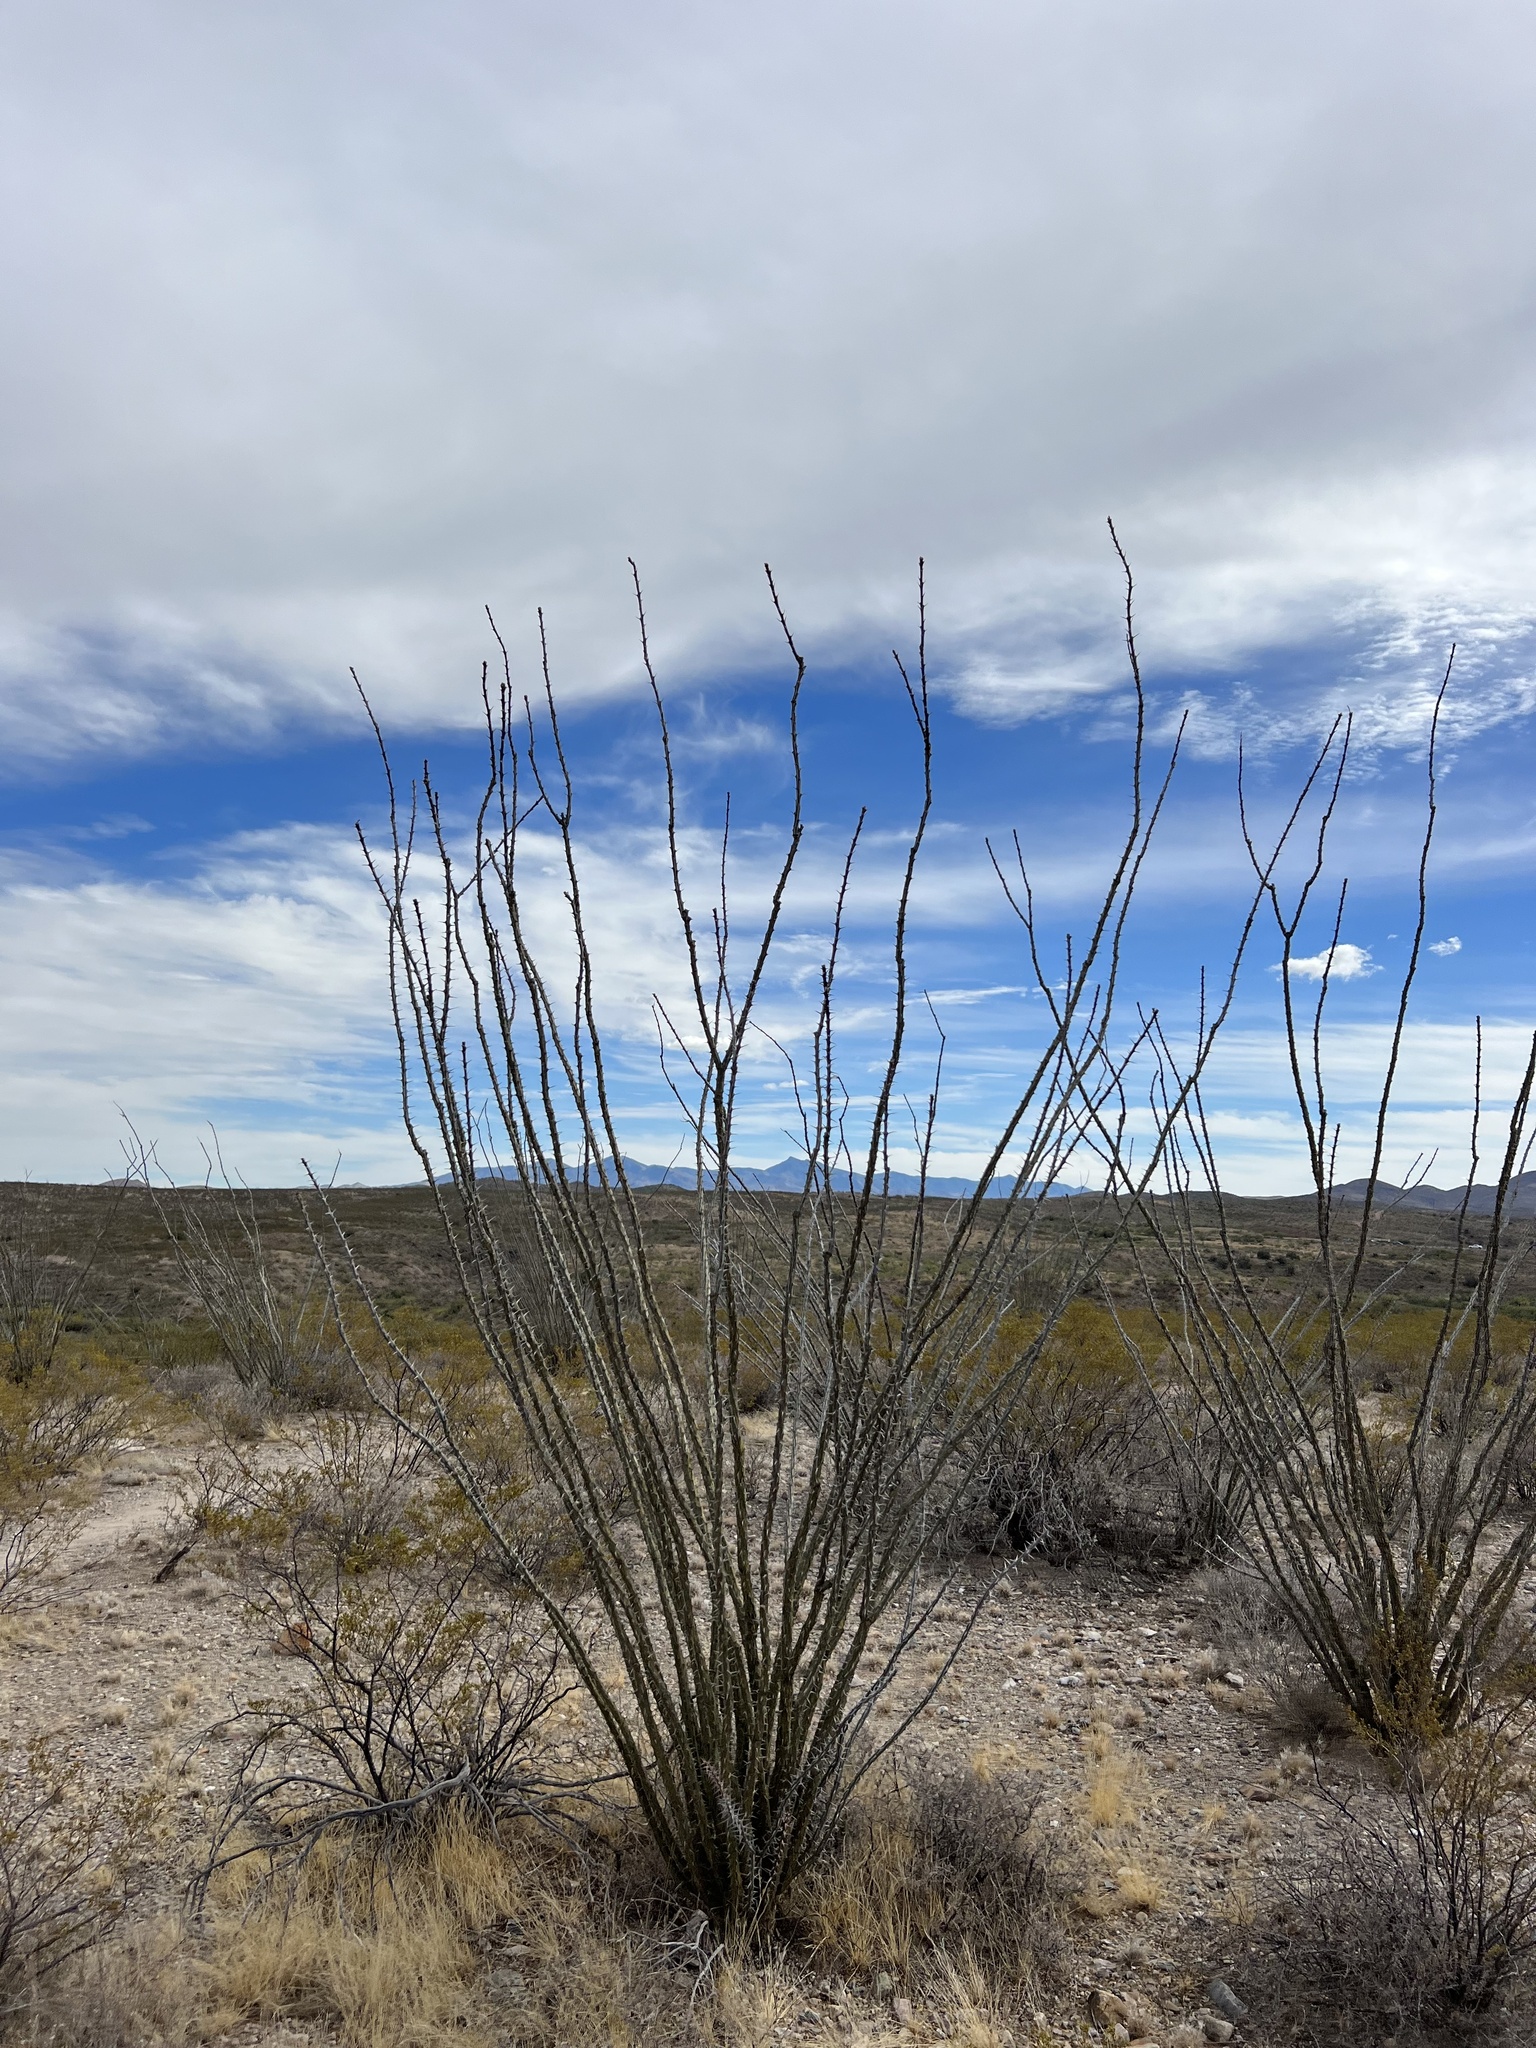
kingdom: Plantae
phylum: Tracheophyta
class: Magnoliopsida
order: Ericales
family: Fouquieriaceae
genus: Fouquieria
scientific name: Fouquieria splendens
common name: Vine-cactus
